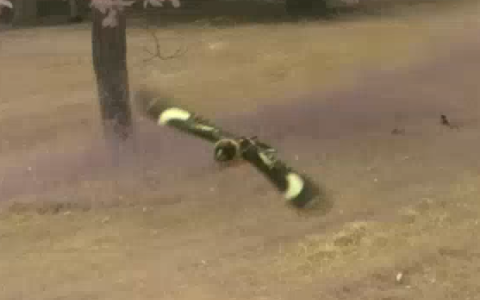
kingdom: Animalia
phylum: Chordata
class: Aves
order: Caprimulgiformes
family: Caprimulgidae
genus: Chordeiles
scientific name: Chordeiles minor
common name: Common nighthawk
